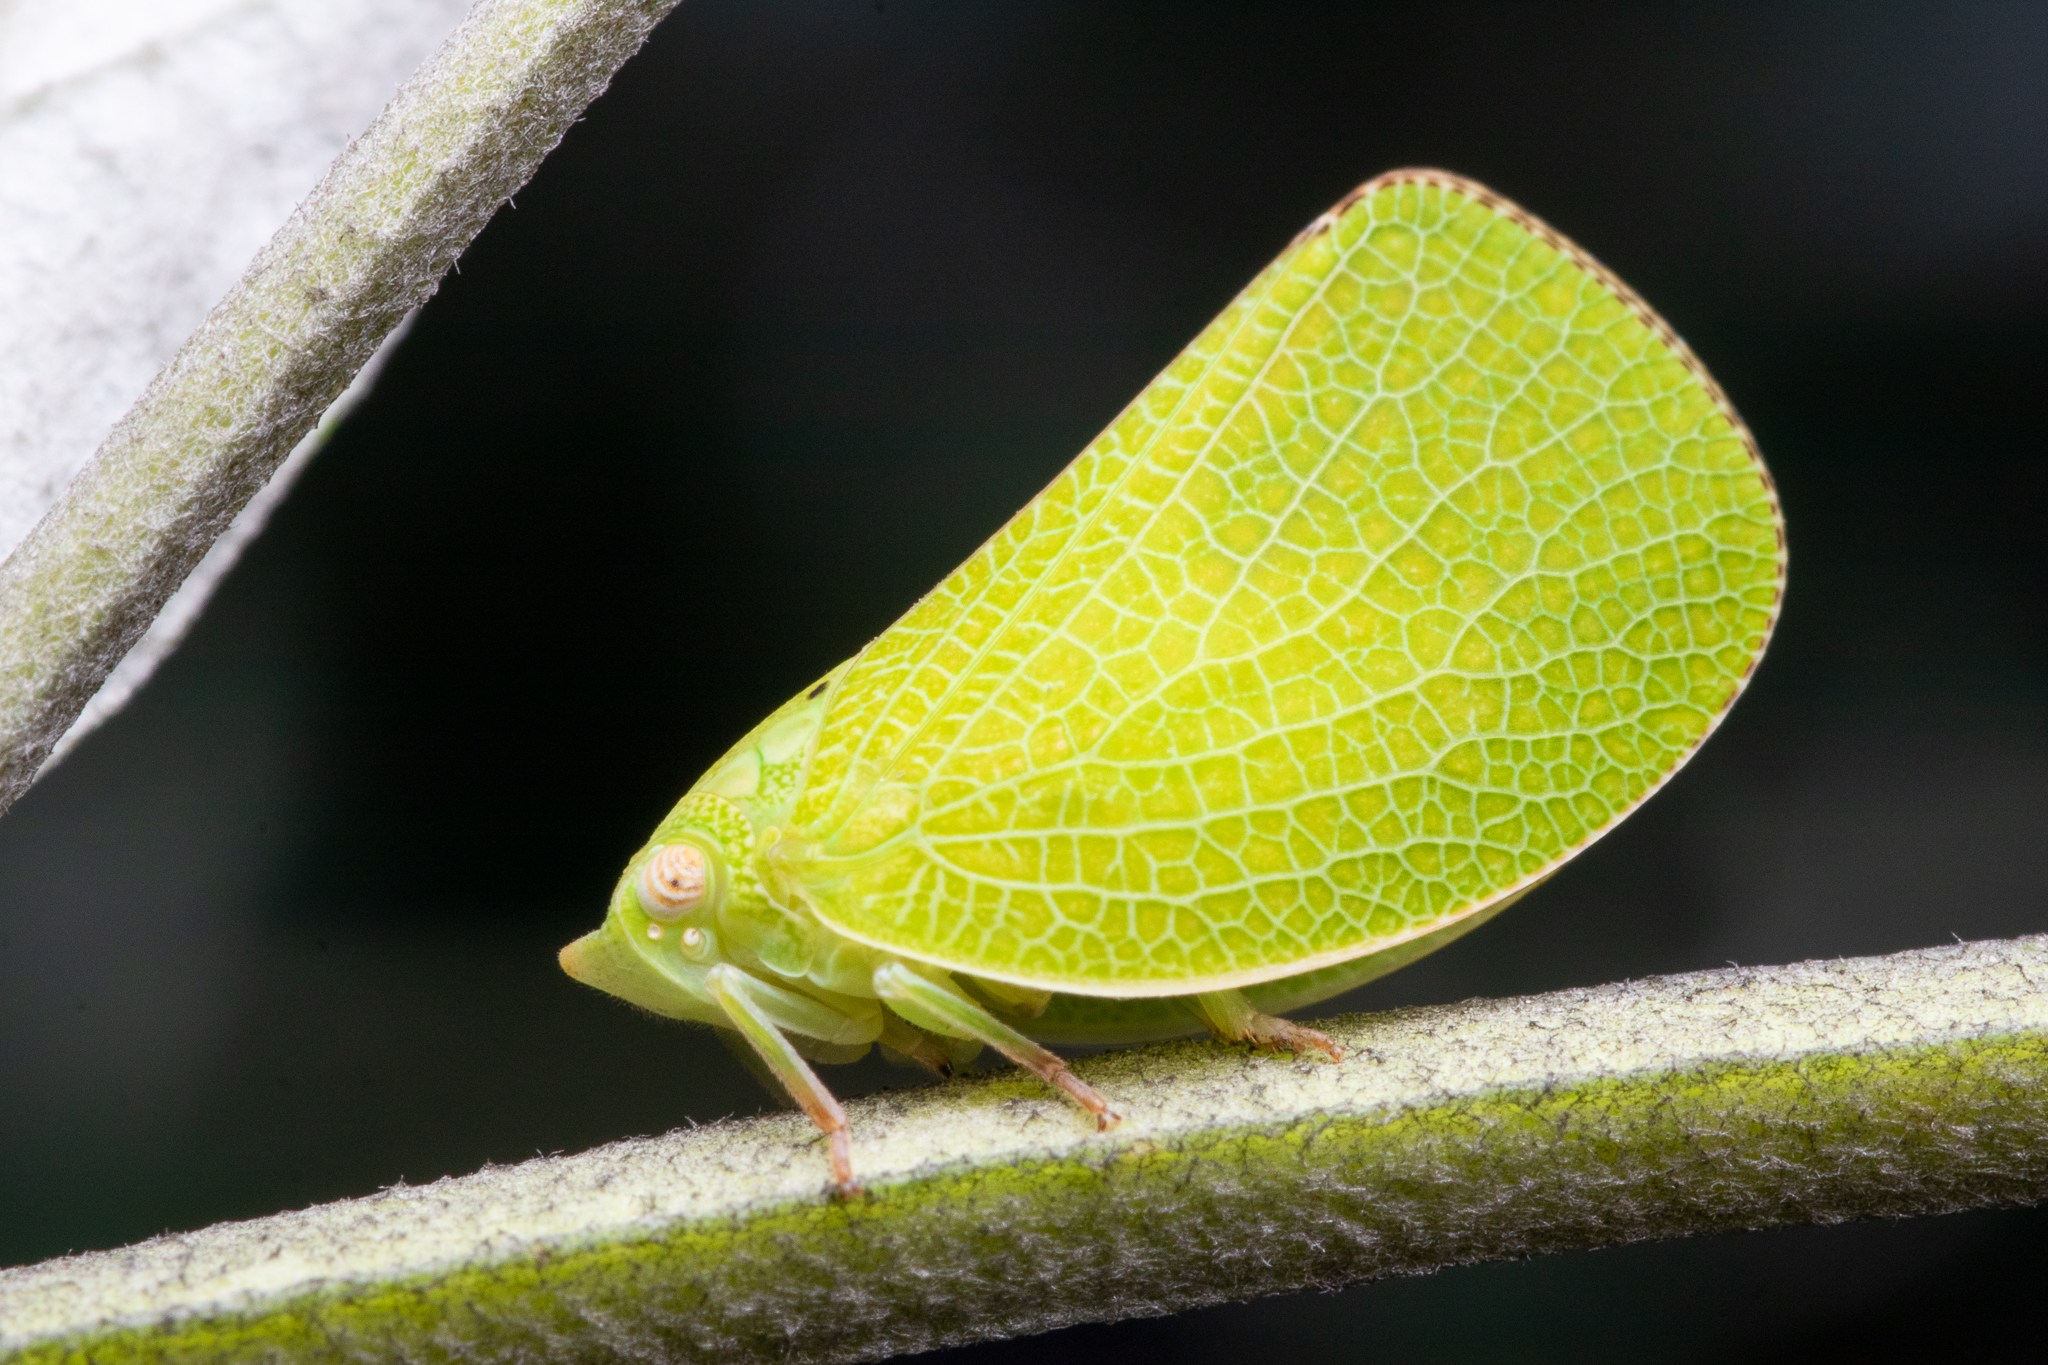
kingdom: Animalia
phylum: Arthropoda
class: Insecta
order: Hemiptera
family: Acanaloniidae
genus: Acanalonia
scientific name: Acanalonia conica
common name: Green cone-headed planthopper
